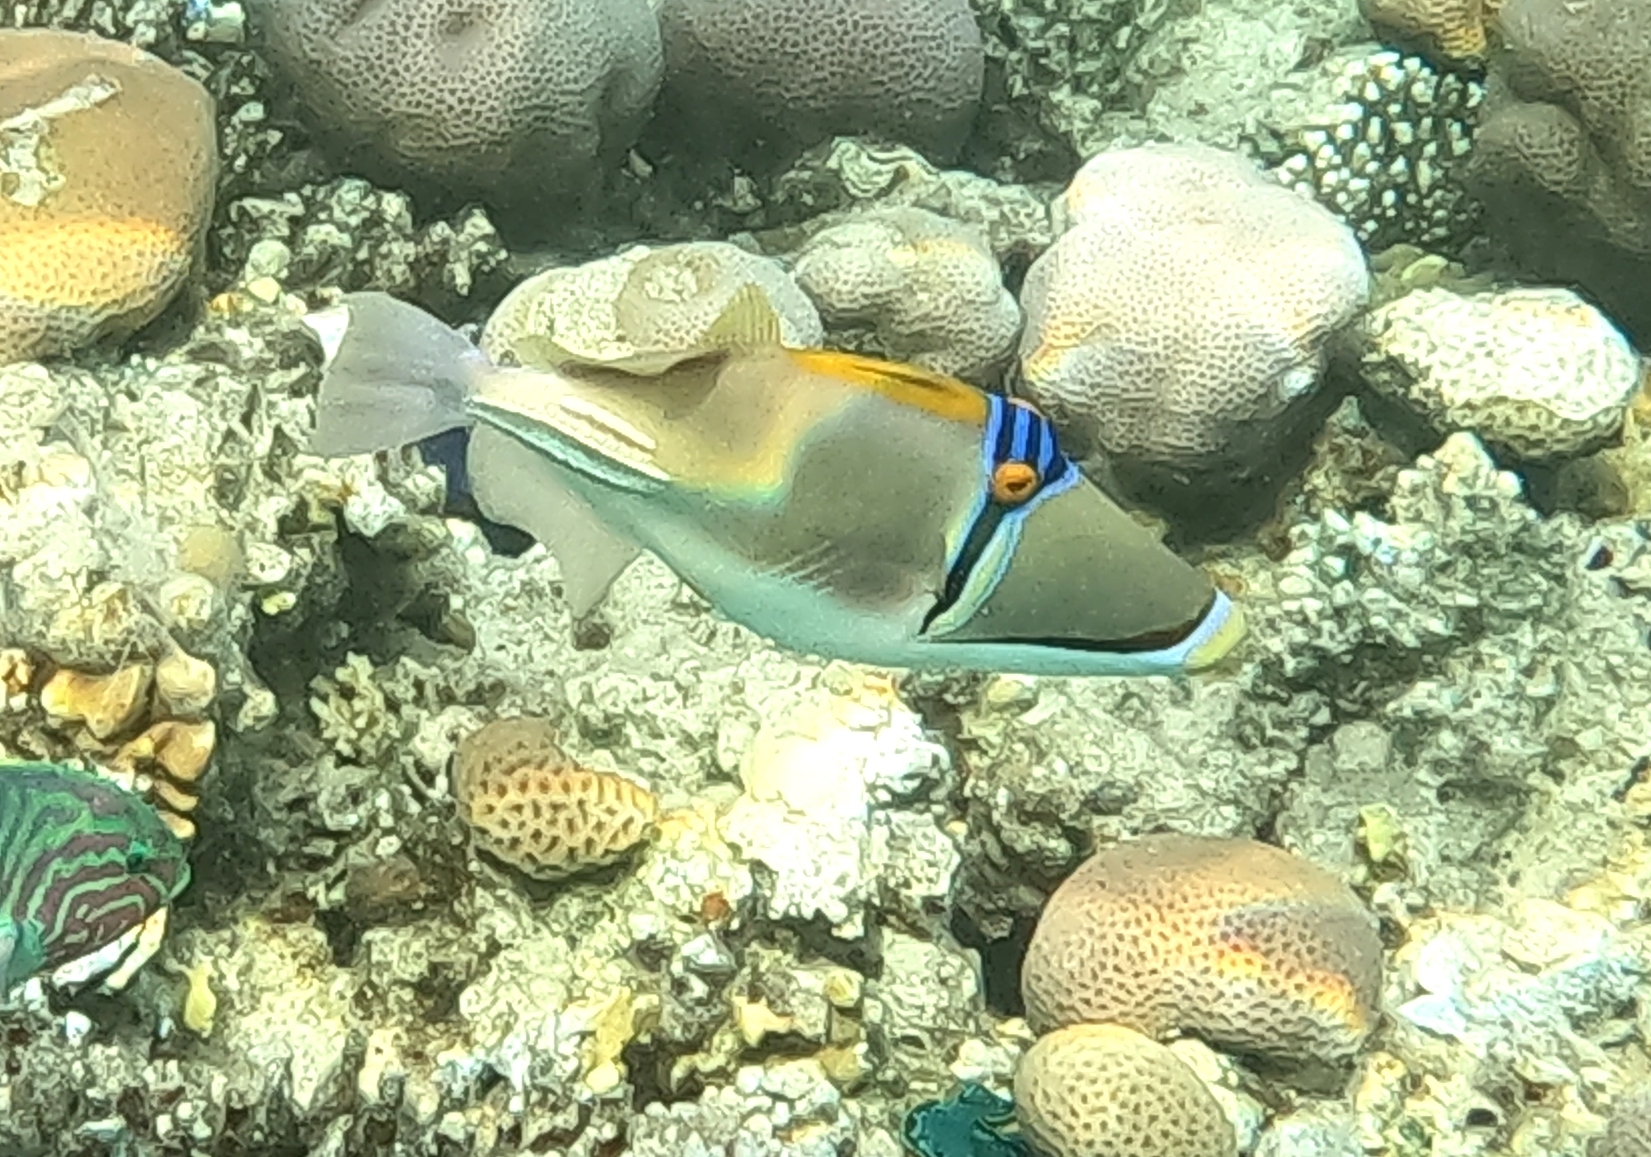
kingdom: Animalia
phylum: Chordata
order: Tetraodontiformes
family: Balistidae
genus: Rhinecanthus
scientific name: Rhinecanthus assasi
